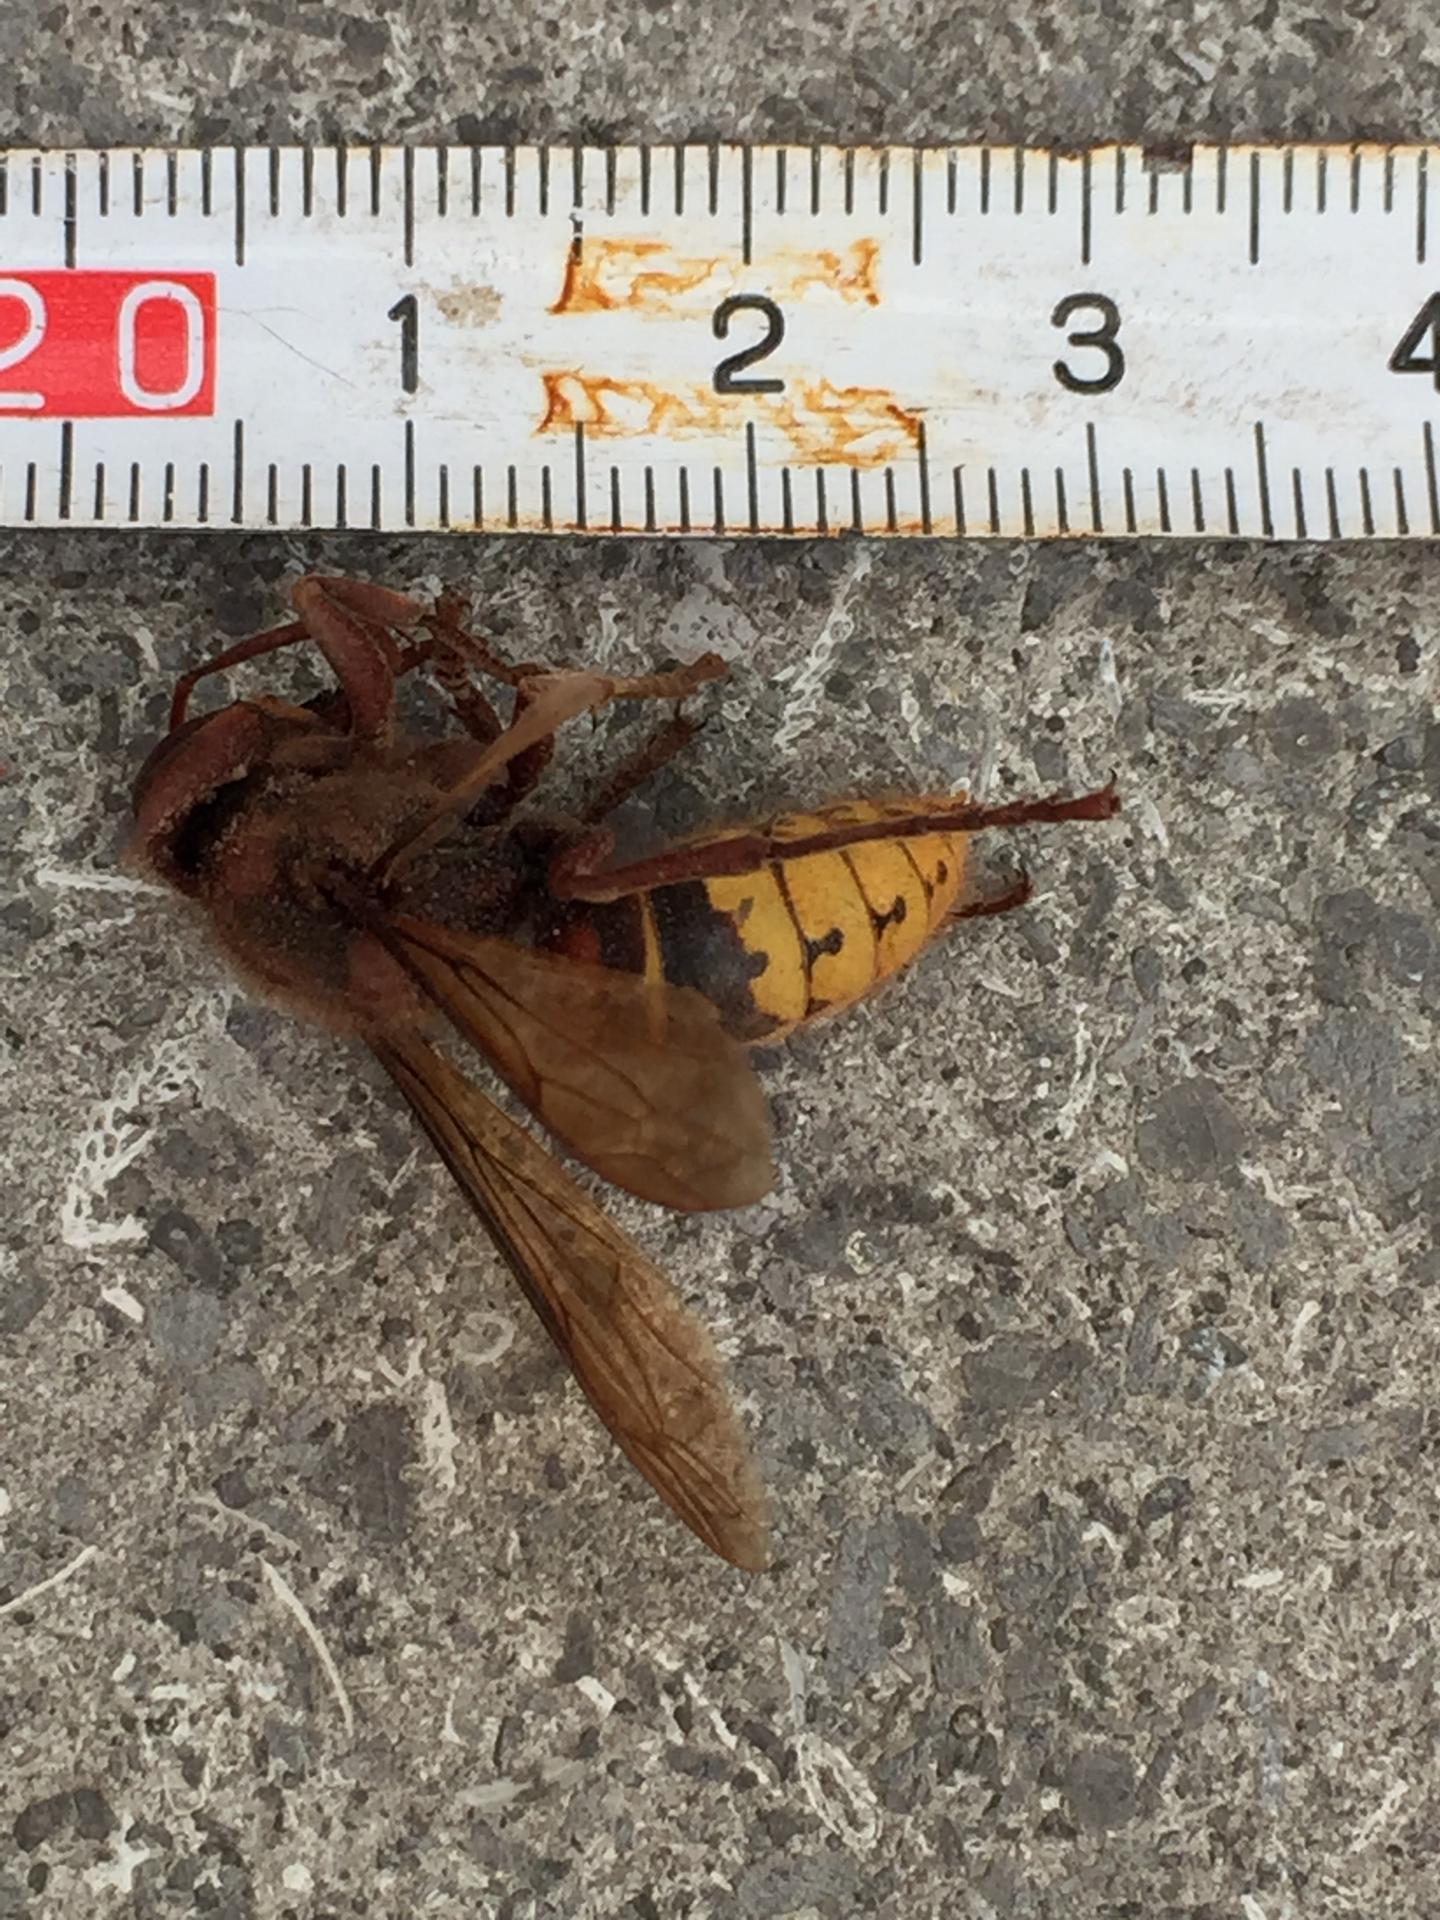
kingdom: Animalia
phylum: Arthropoda
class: Insecta
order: Hymenoptera
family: Vespidae
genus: Vespa
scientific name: Vespa crabro
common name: Hornet
